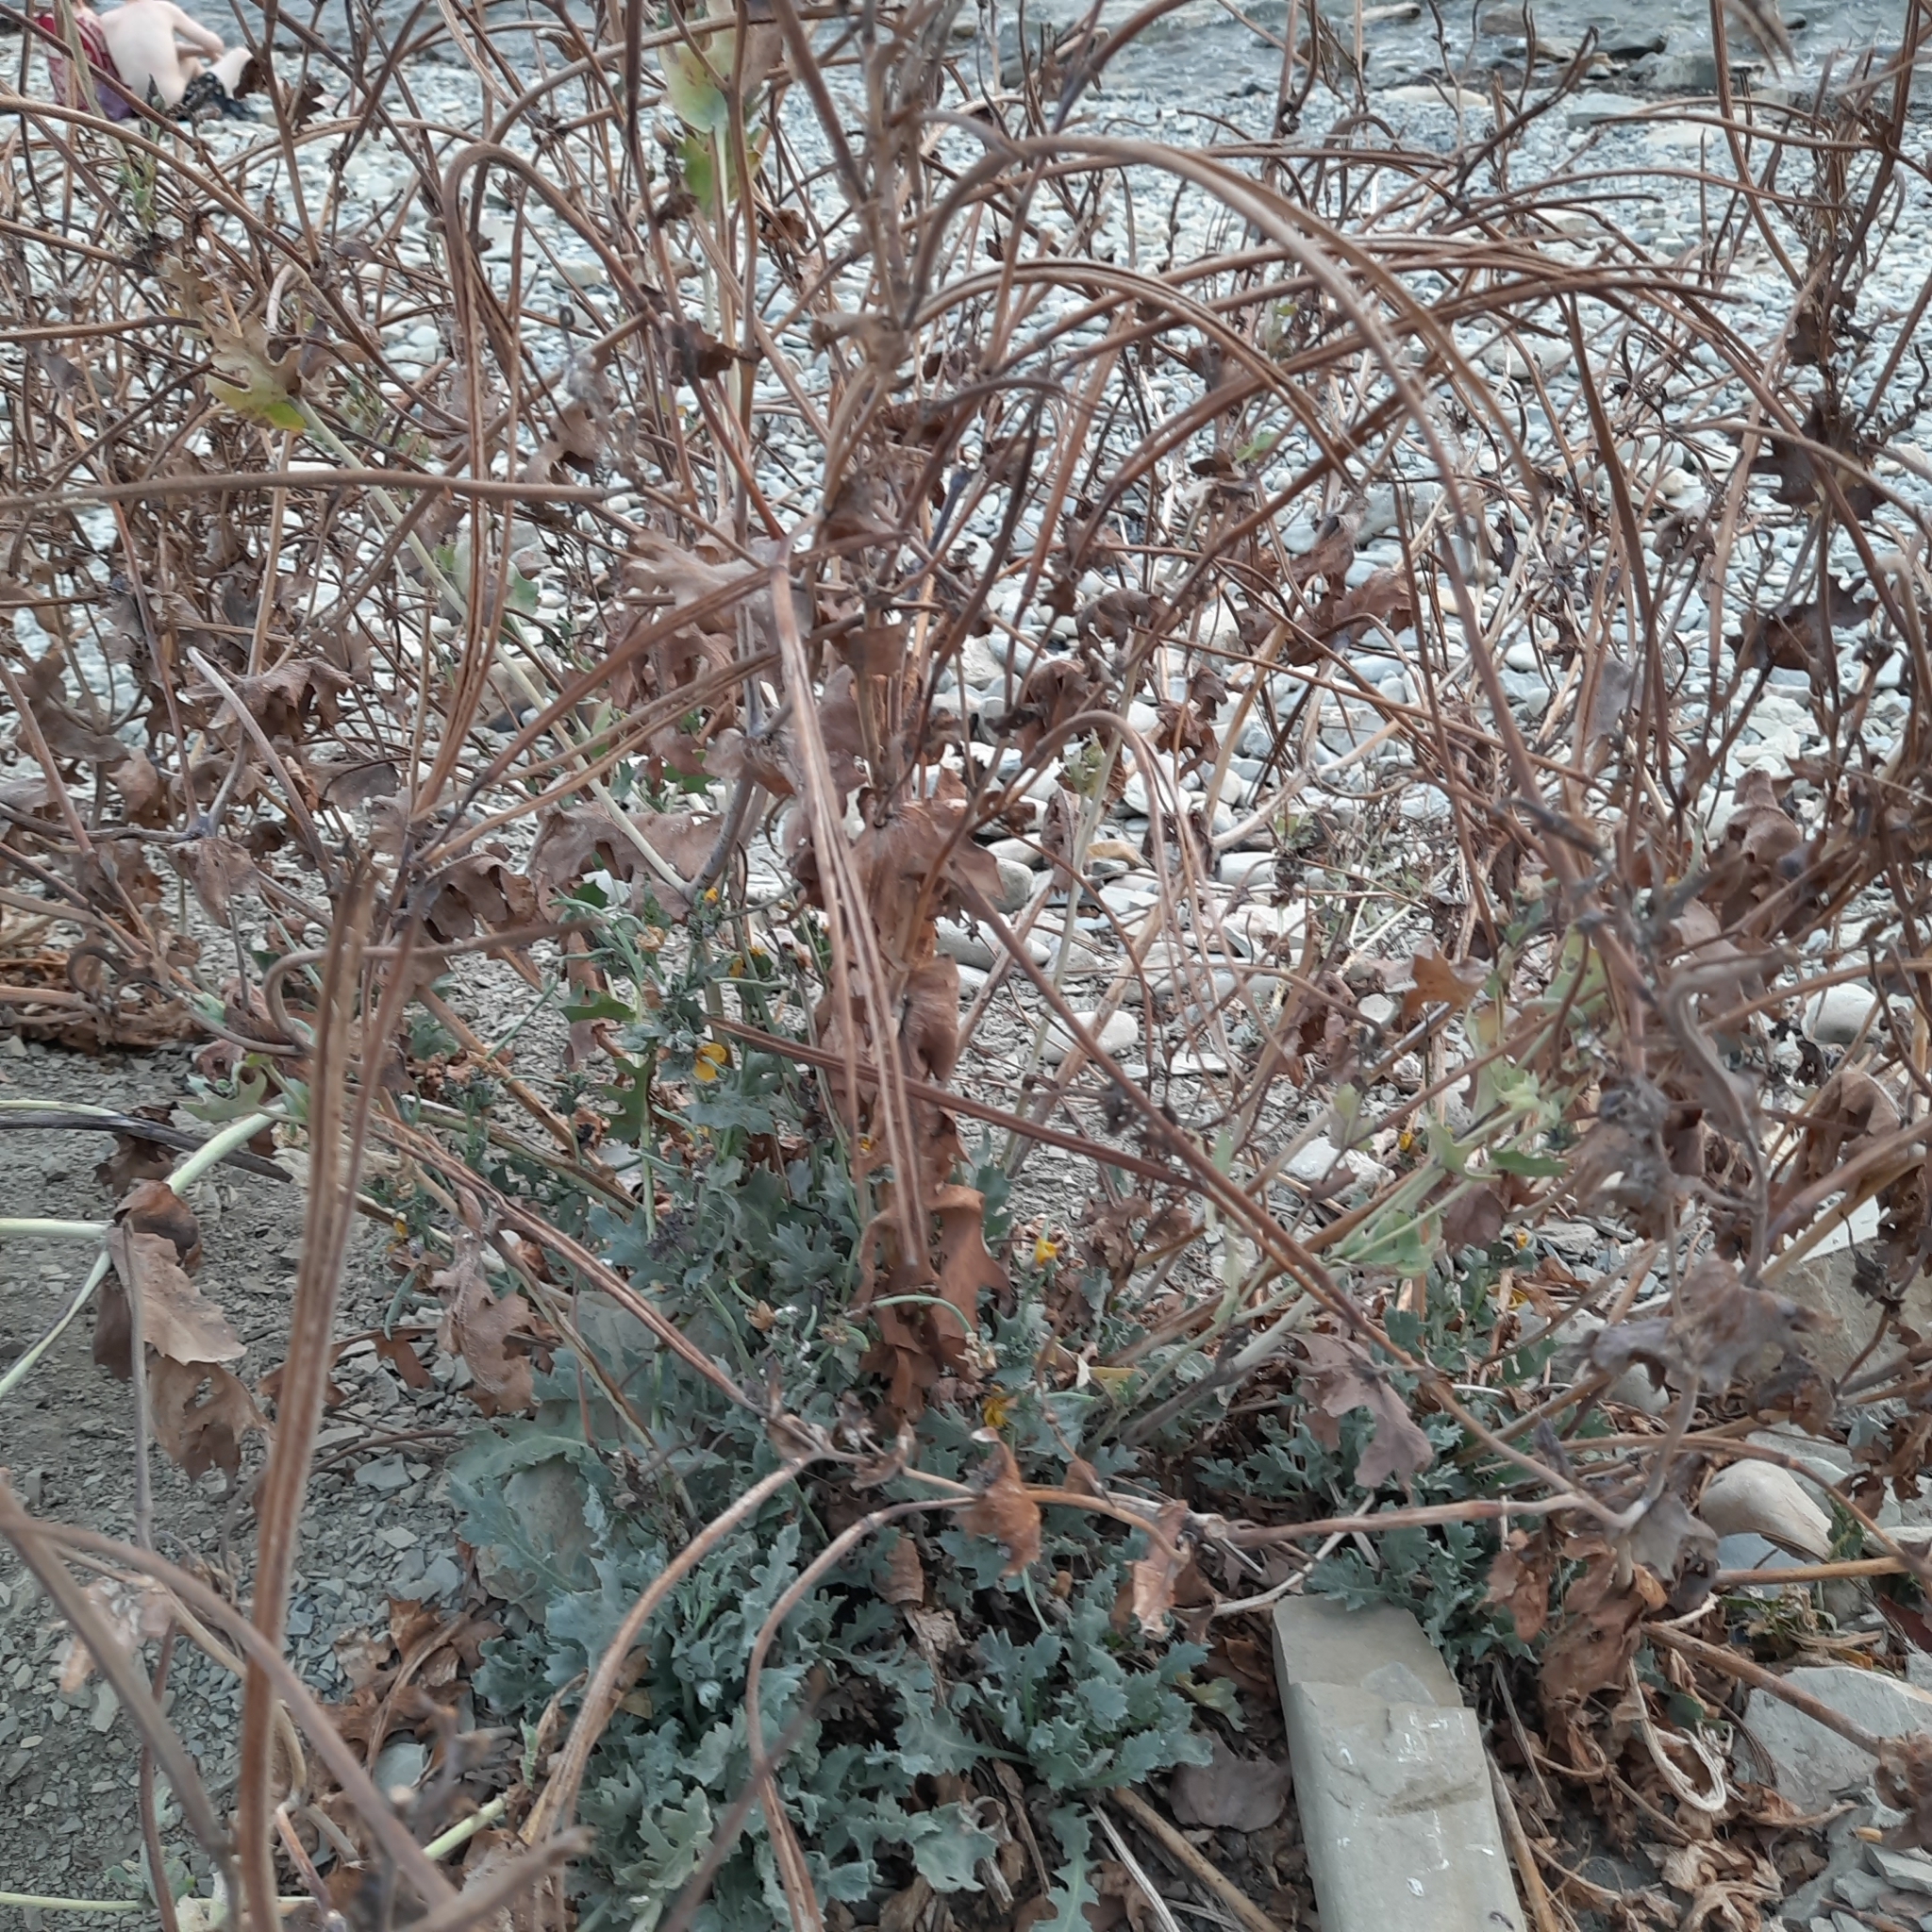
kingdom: Plantae
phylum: Tracheophyta
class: Magnoliopsida
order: Ranunculales
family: Papaveraceae
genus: Glaucium
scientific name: Glaucium flavum
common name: Yellow horned-poppy
